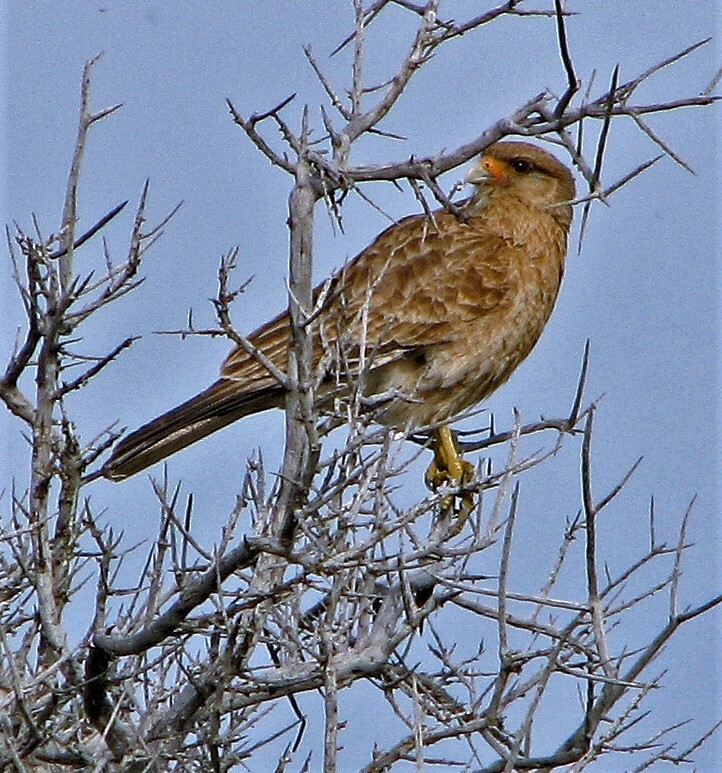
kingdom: Animalia
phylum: Chordata
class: Aves
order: Falconiformes
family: Falconidae
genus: Daptrius
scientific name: Daptrius
